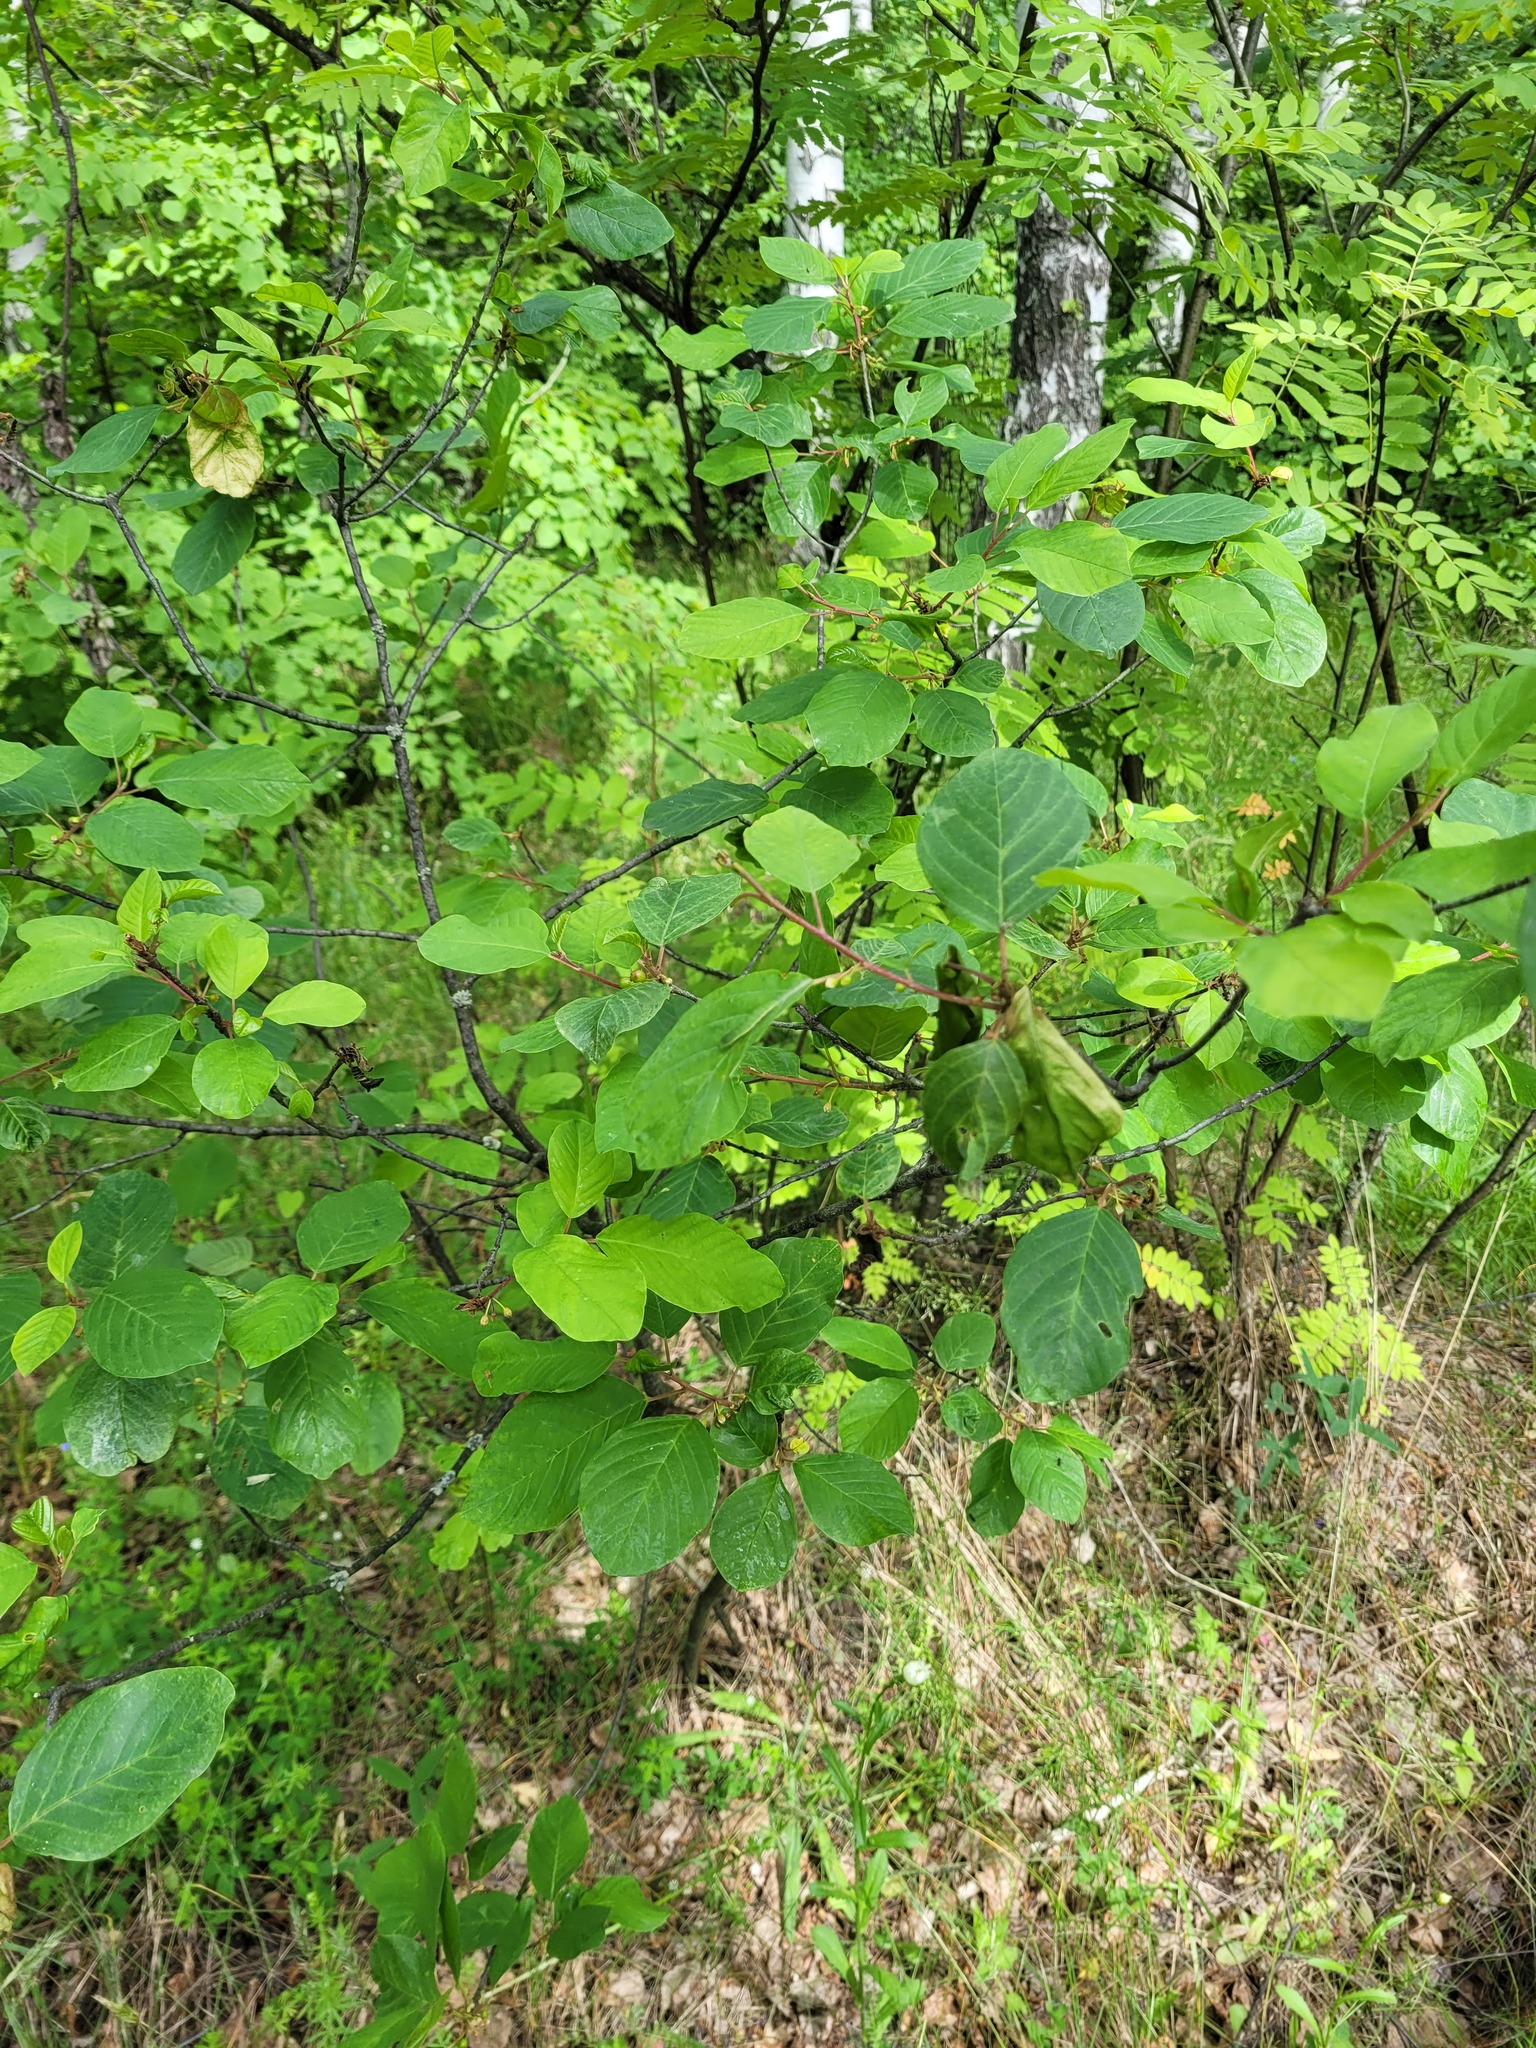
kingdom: Plantae
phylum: Tracheophyta
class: Magnoliopsida
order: Rosales
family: Rhamnaceae
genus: Frangula
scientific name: Frangula alnus
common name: Alder buckthorn
